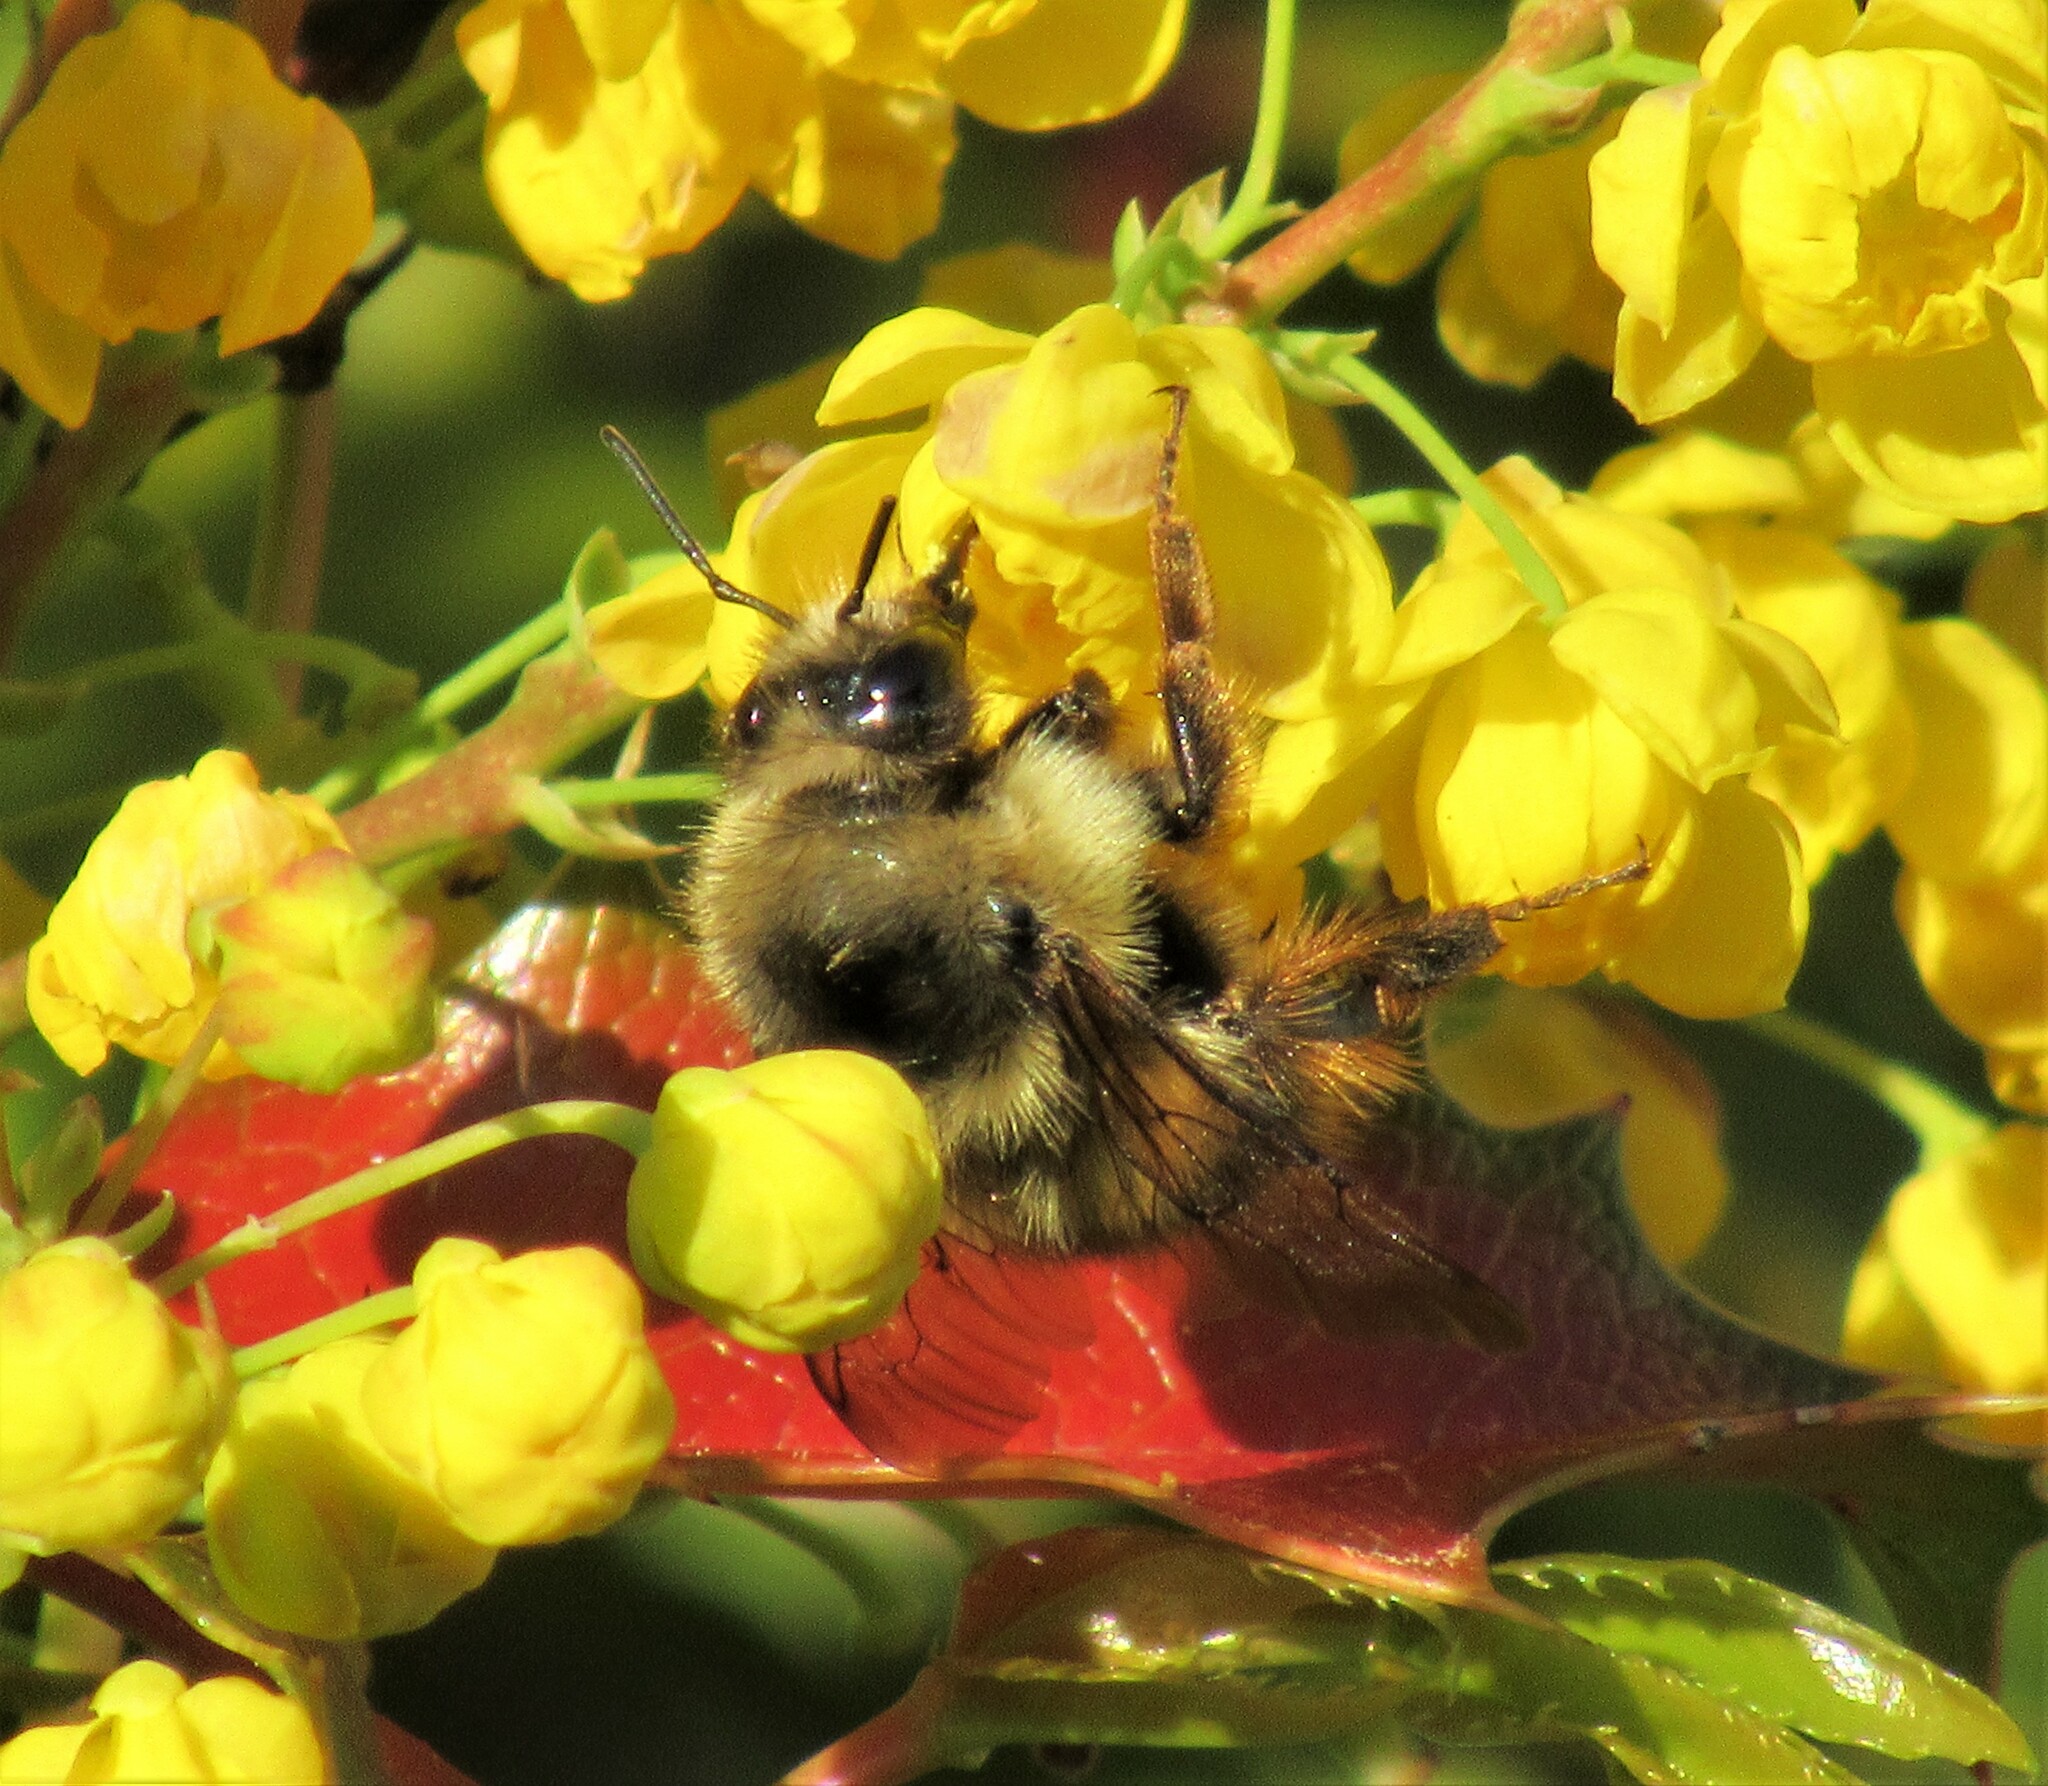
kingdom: Animalia
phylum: Arthropoda
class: Insecta
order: Hymenoptera
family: Apidae
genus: Bombus
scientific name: Bombus mixtus
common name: Fuzzy-horned bumble bee
